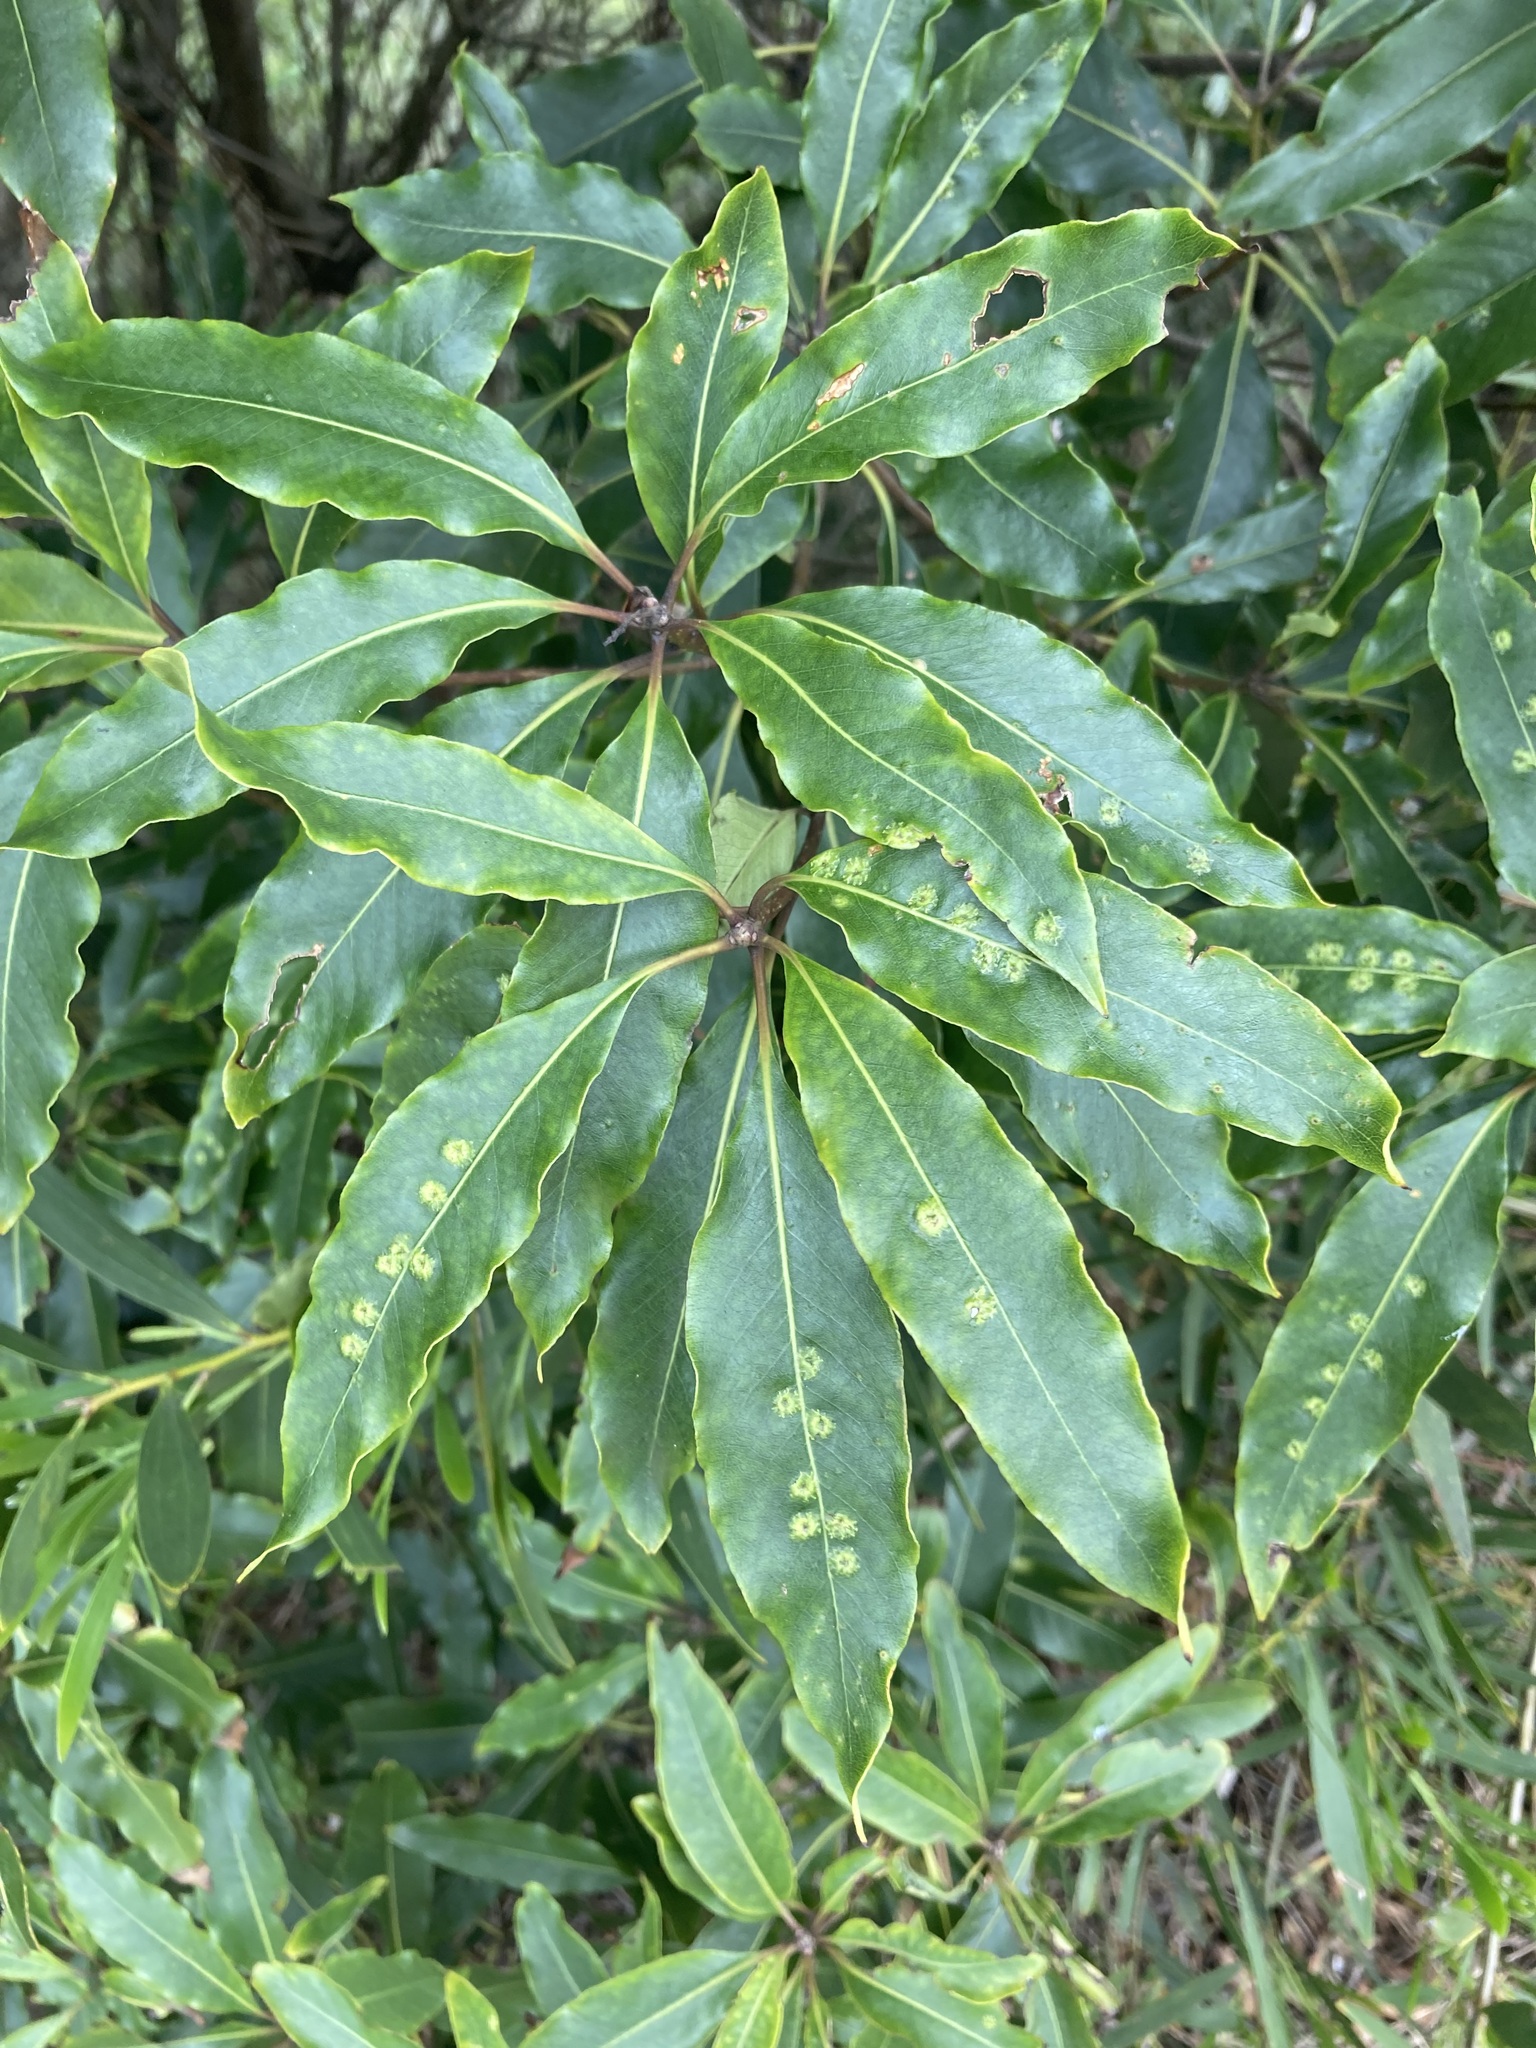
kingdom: Animalia
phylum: Arthropoda
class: Insecta
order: Diptera
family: Agromyzidae
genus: Phytoliriomyza
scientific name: Phytoliriomyza pittosporophylli
